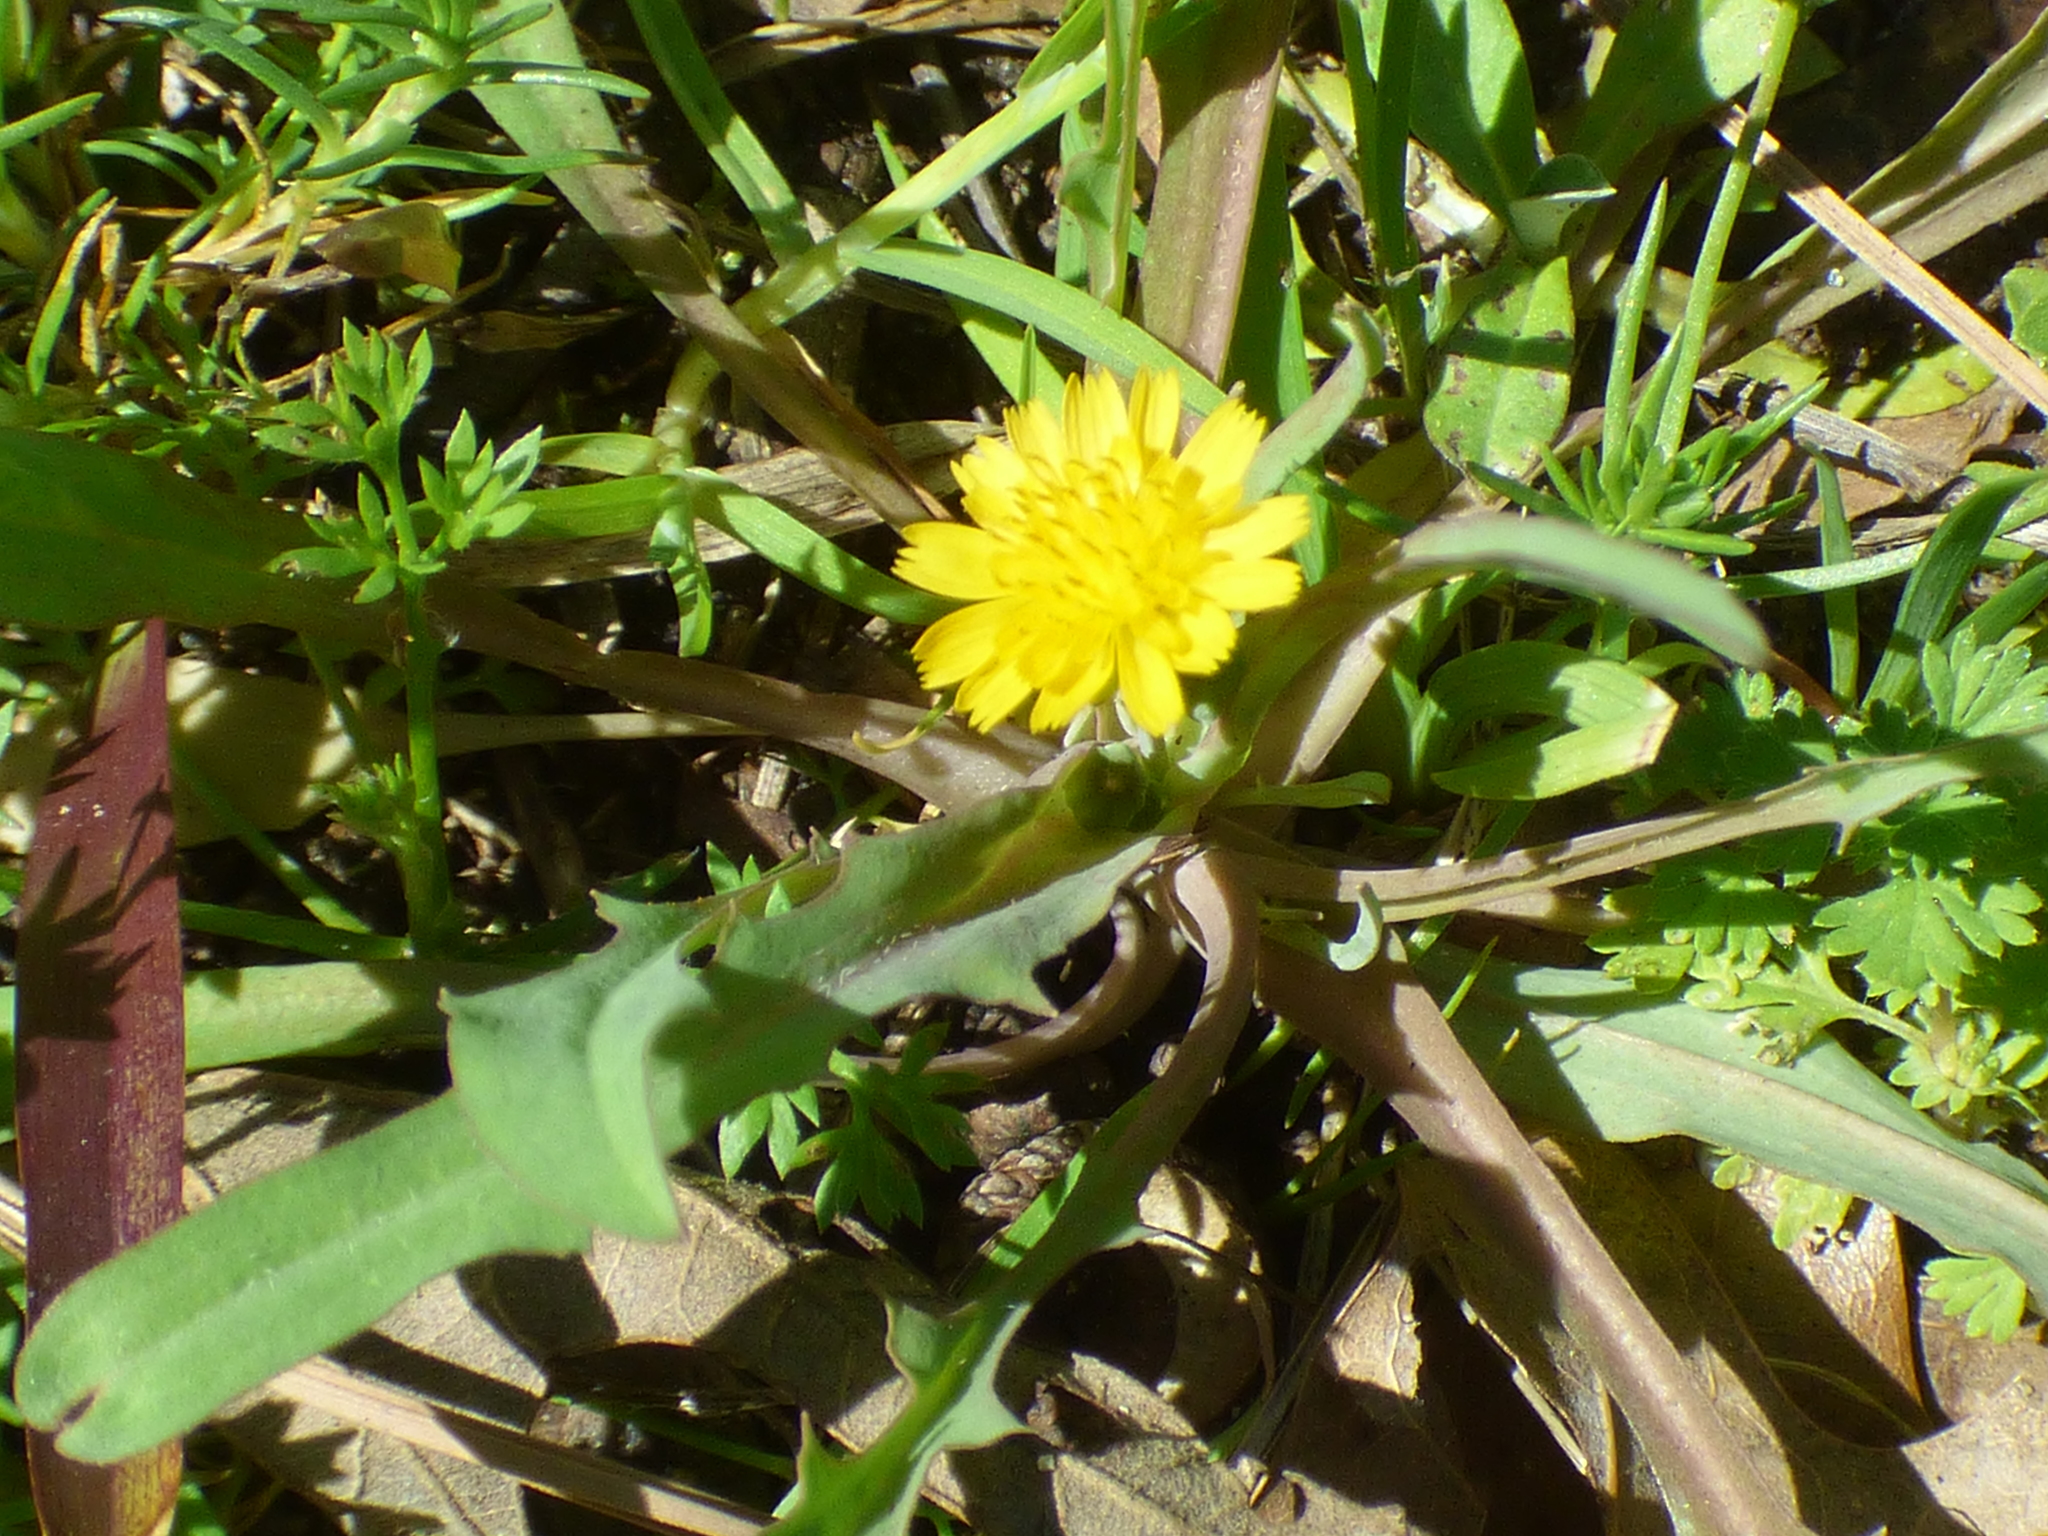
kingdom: Plantae
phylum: Tracheophyta
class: Magnoliopsida
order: Asterales
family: Asteraceae
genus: Krigia
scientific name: Krigia cespitosa
